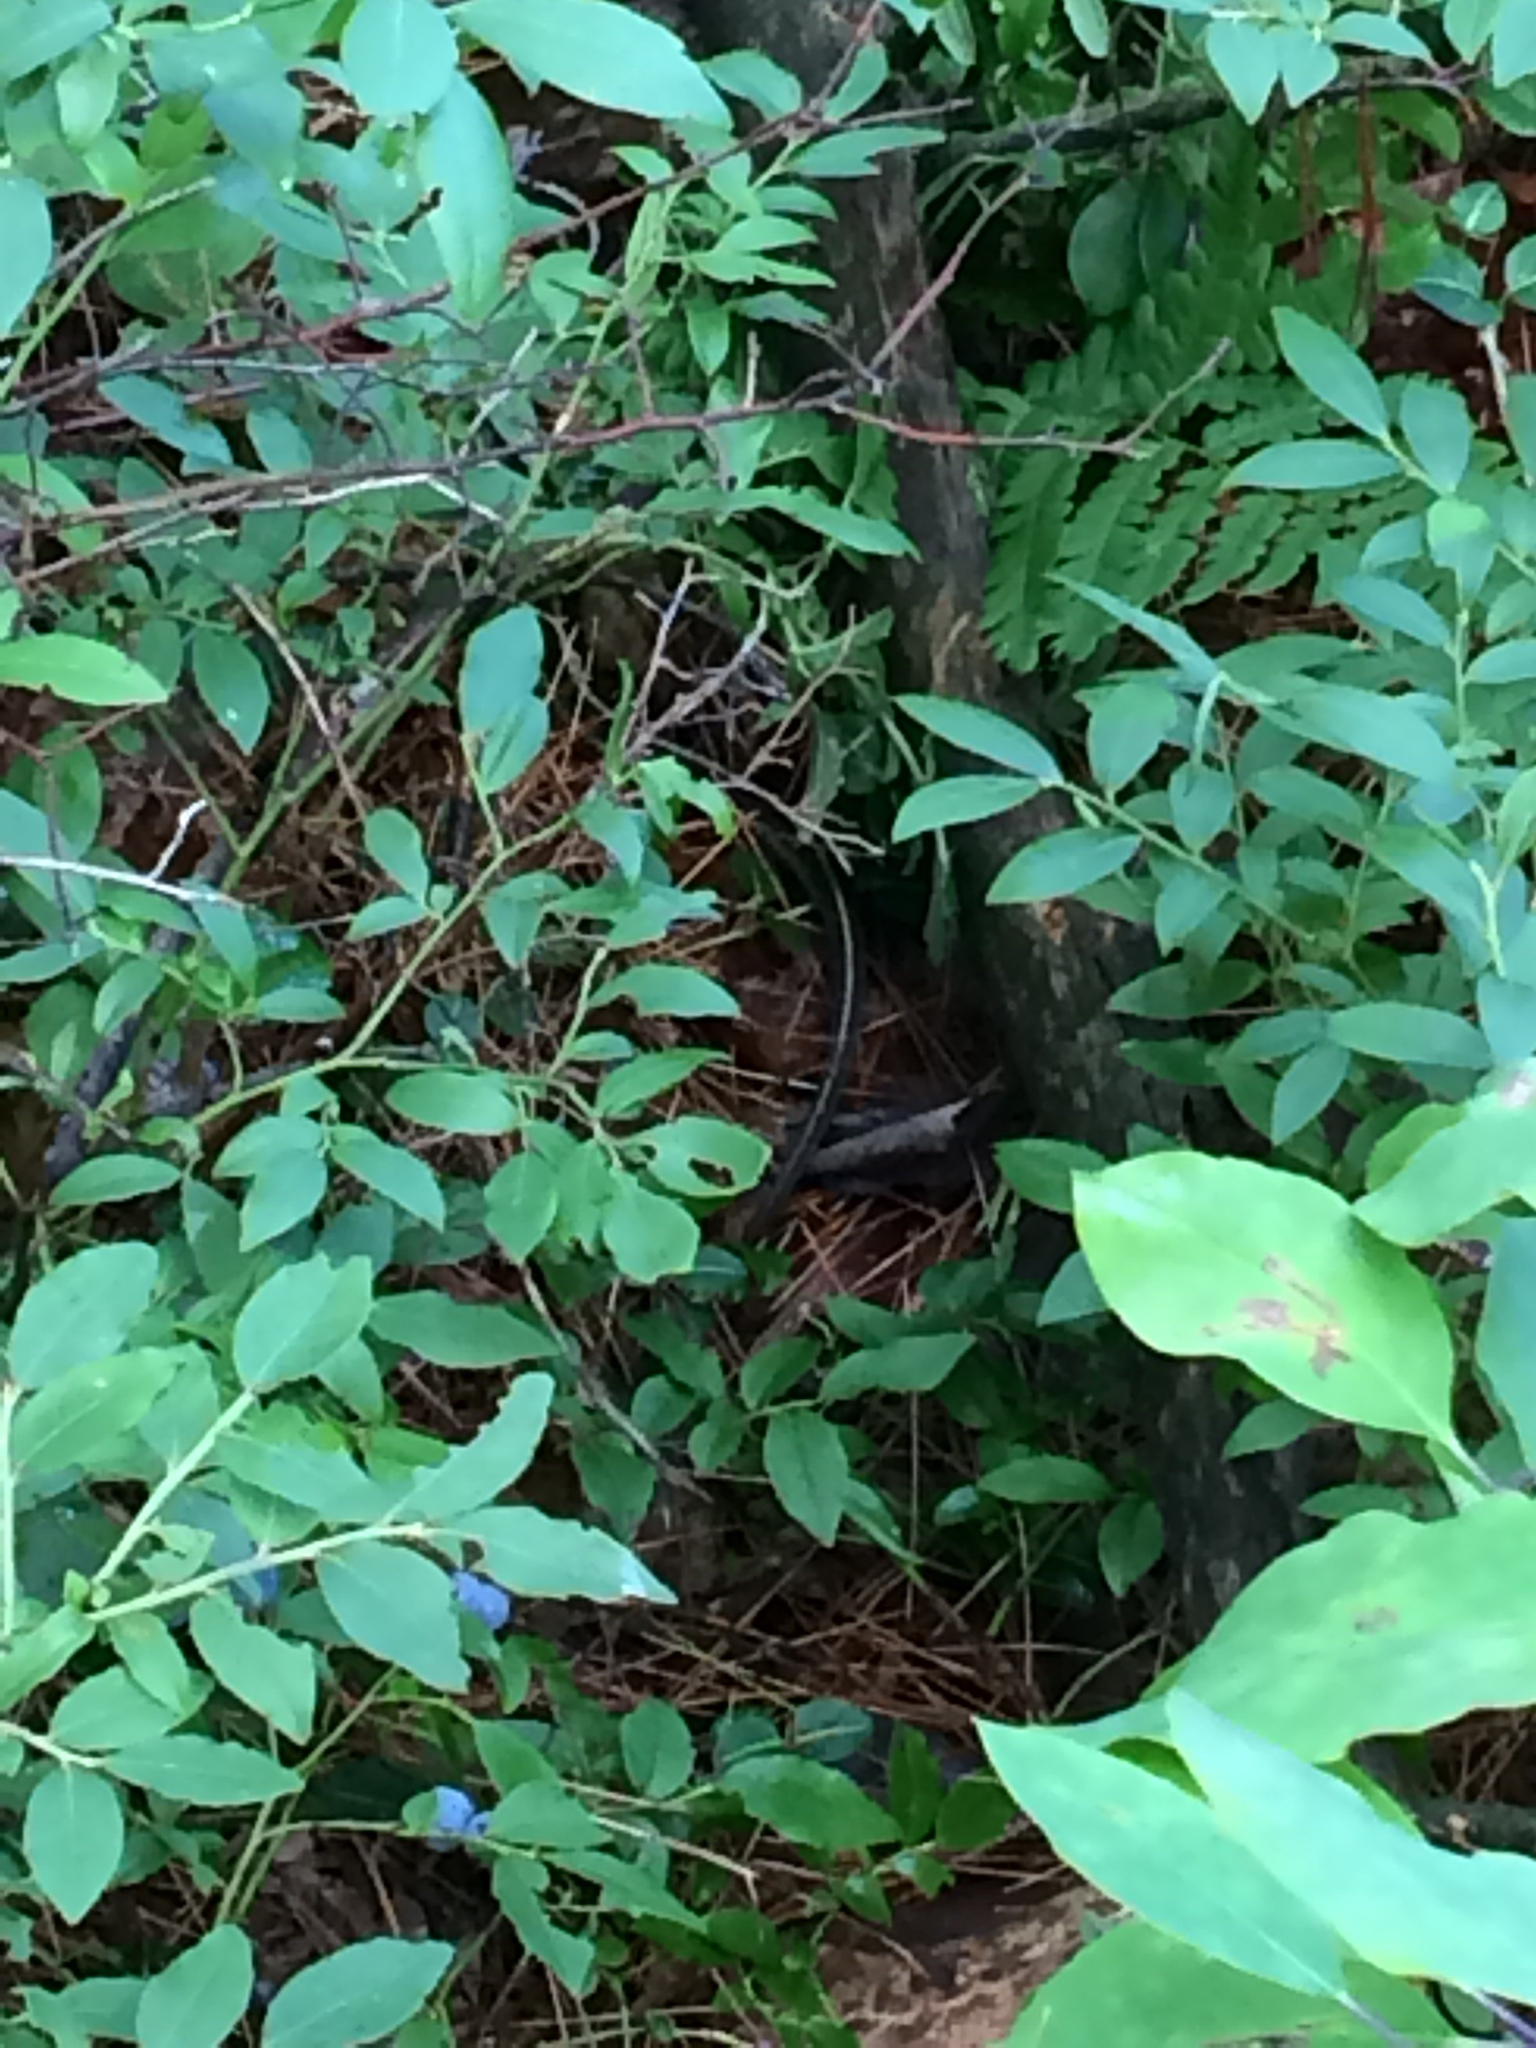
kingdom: Animalia
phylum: Chordata
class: Squamata
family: Colubridae
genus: Thamnophis
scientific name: Thamnophis sirtalis
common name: Common garter snake
